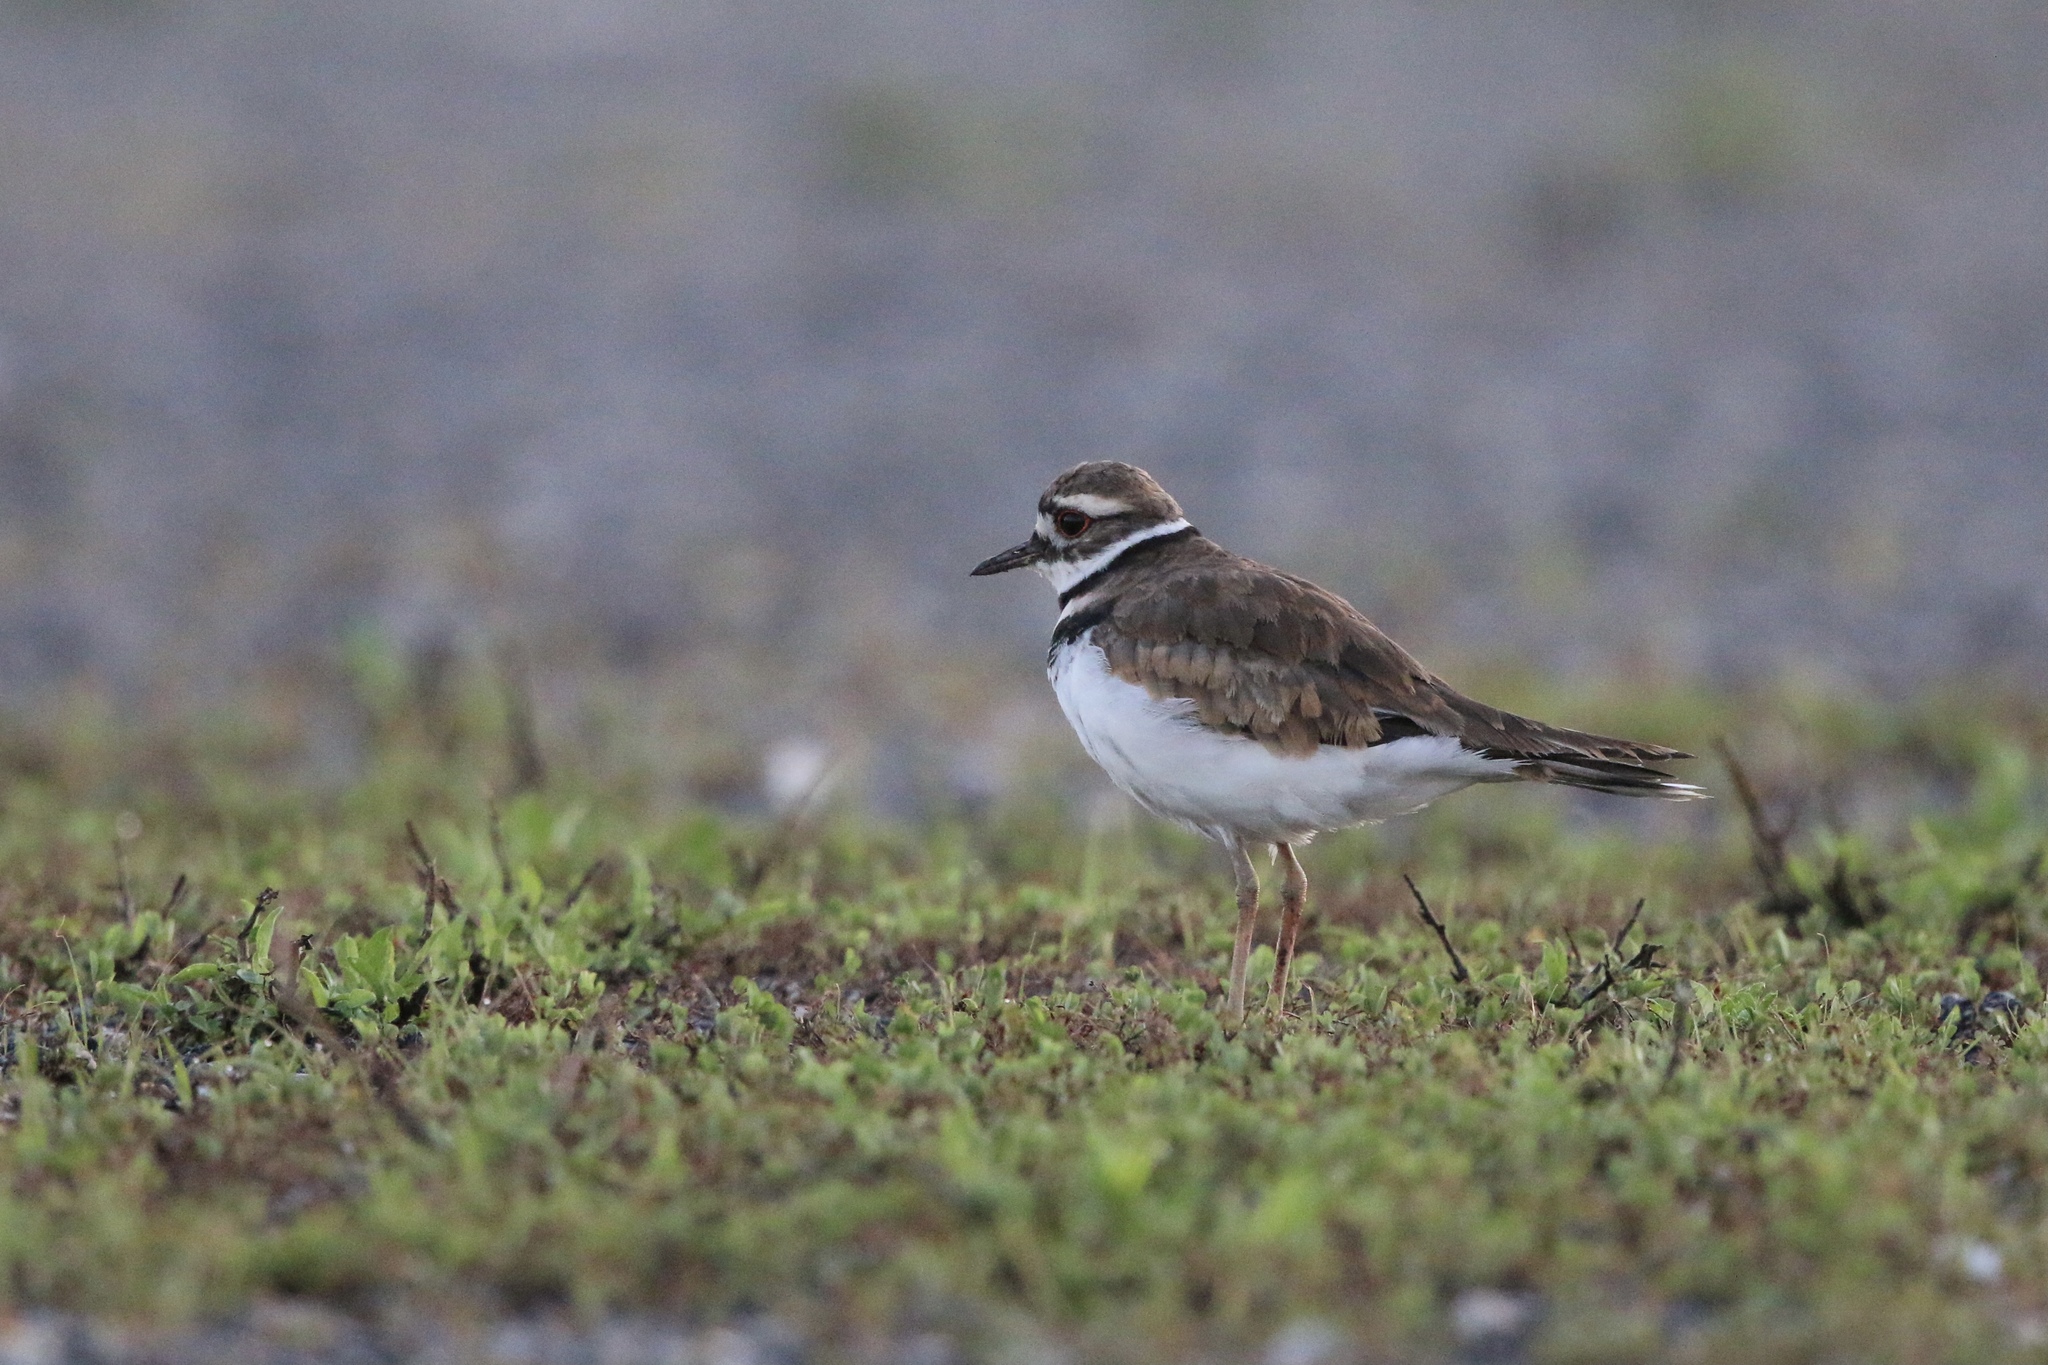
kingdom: Animalia
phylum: Chordata
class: Aves
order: Charadriiformes
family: Charadriidae
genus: Charadrius
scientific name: Charadrius vociferus
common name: Killdeer
